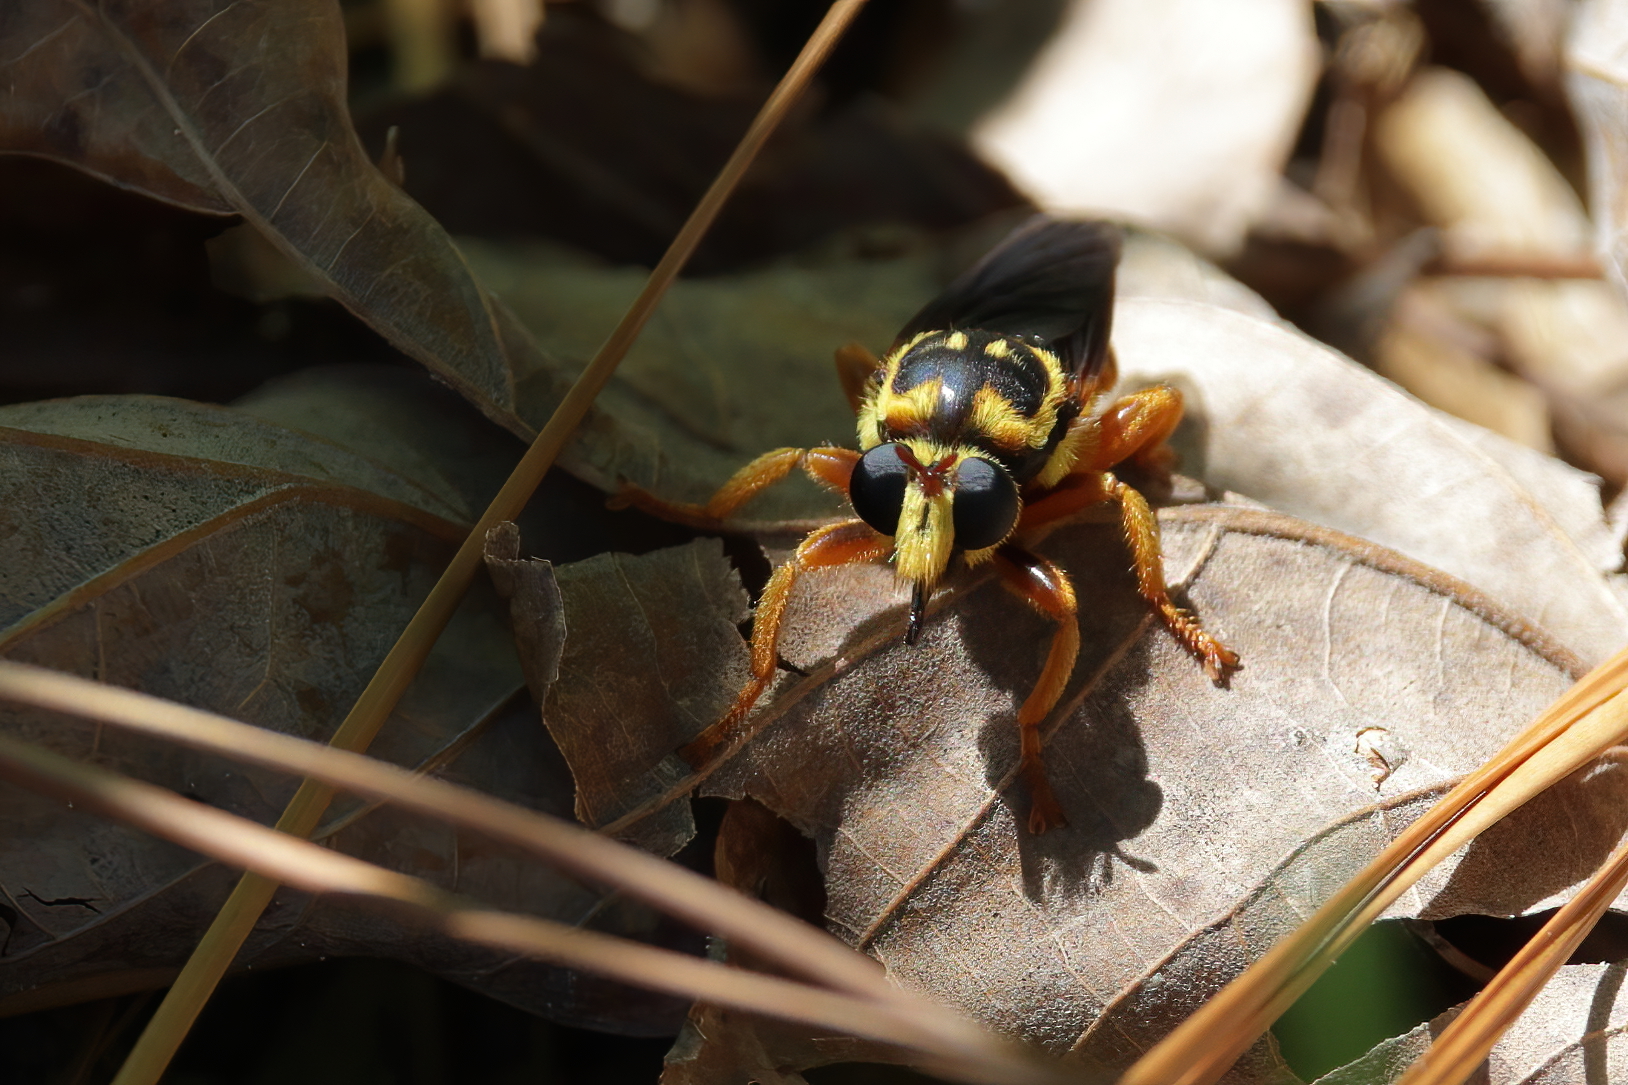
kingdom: Animalia
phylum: Arthropoda
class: Insecta
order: Diptera
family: Asilidae
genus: Laphria
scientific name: Laphria saffrana
